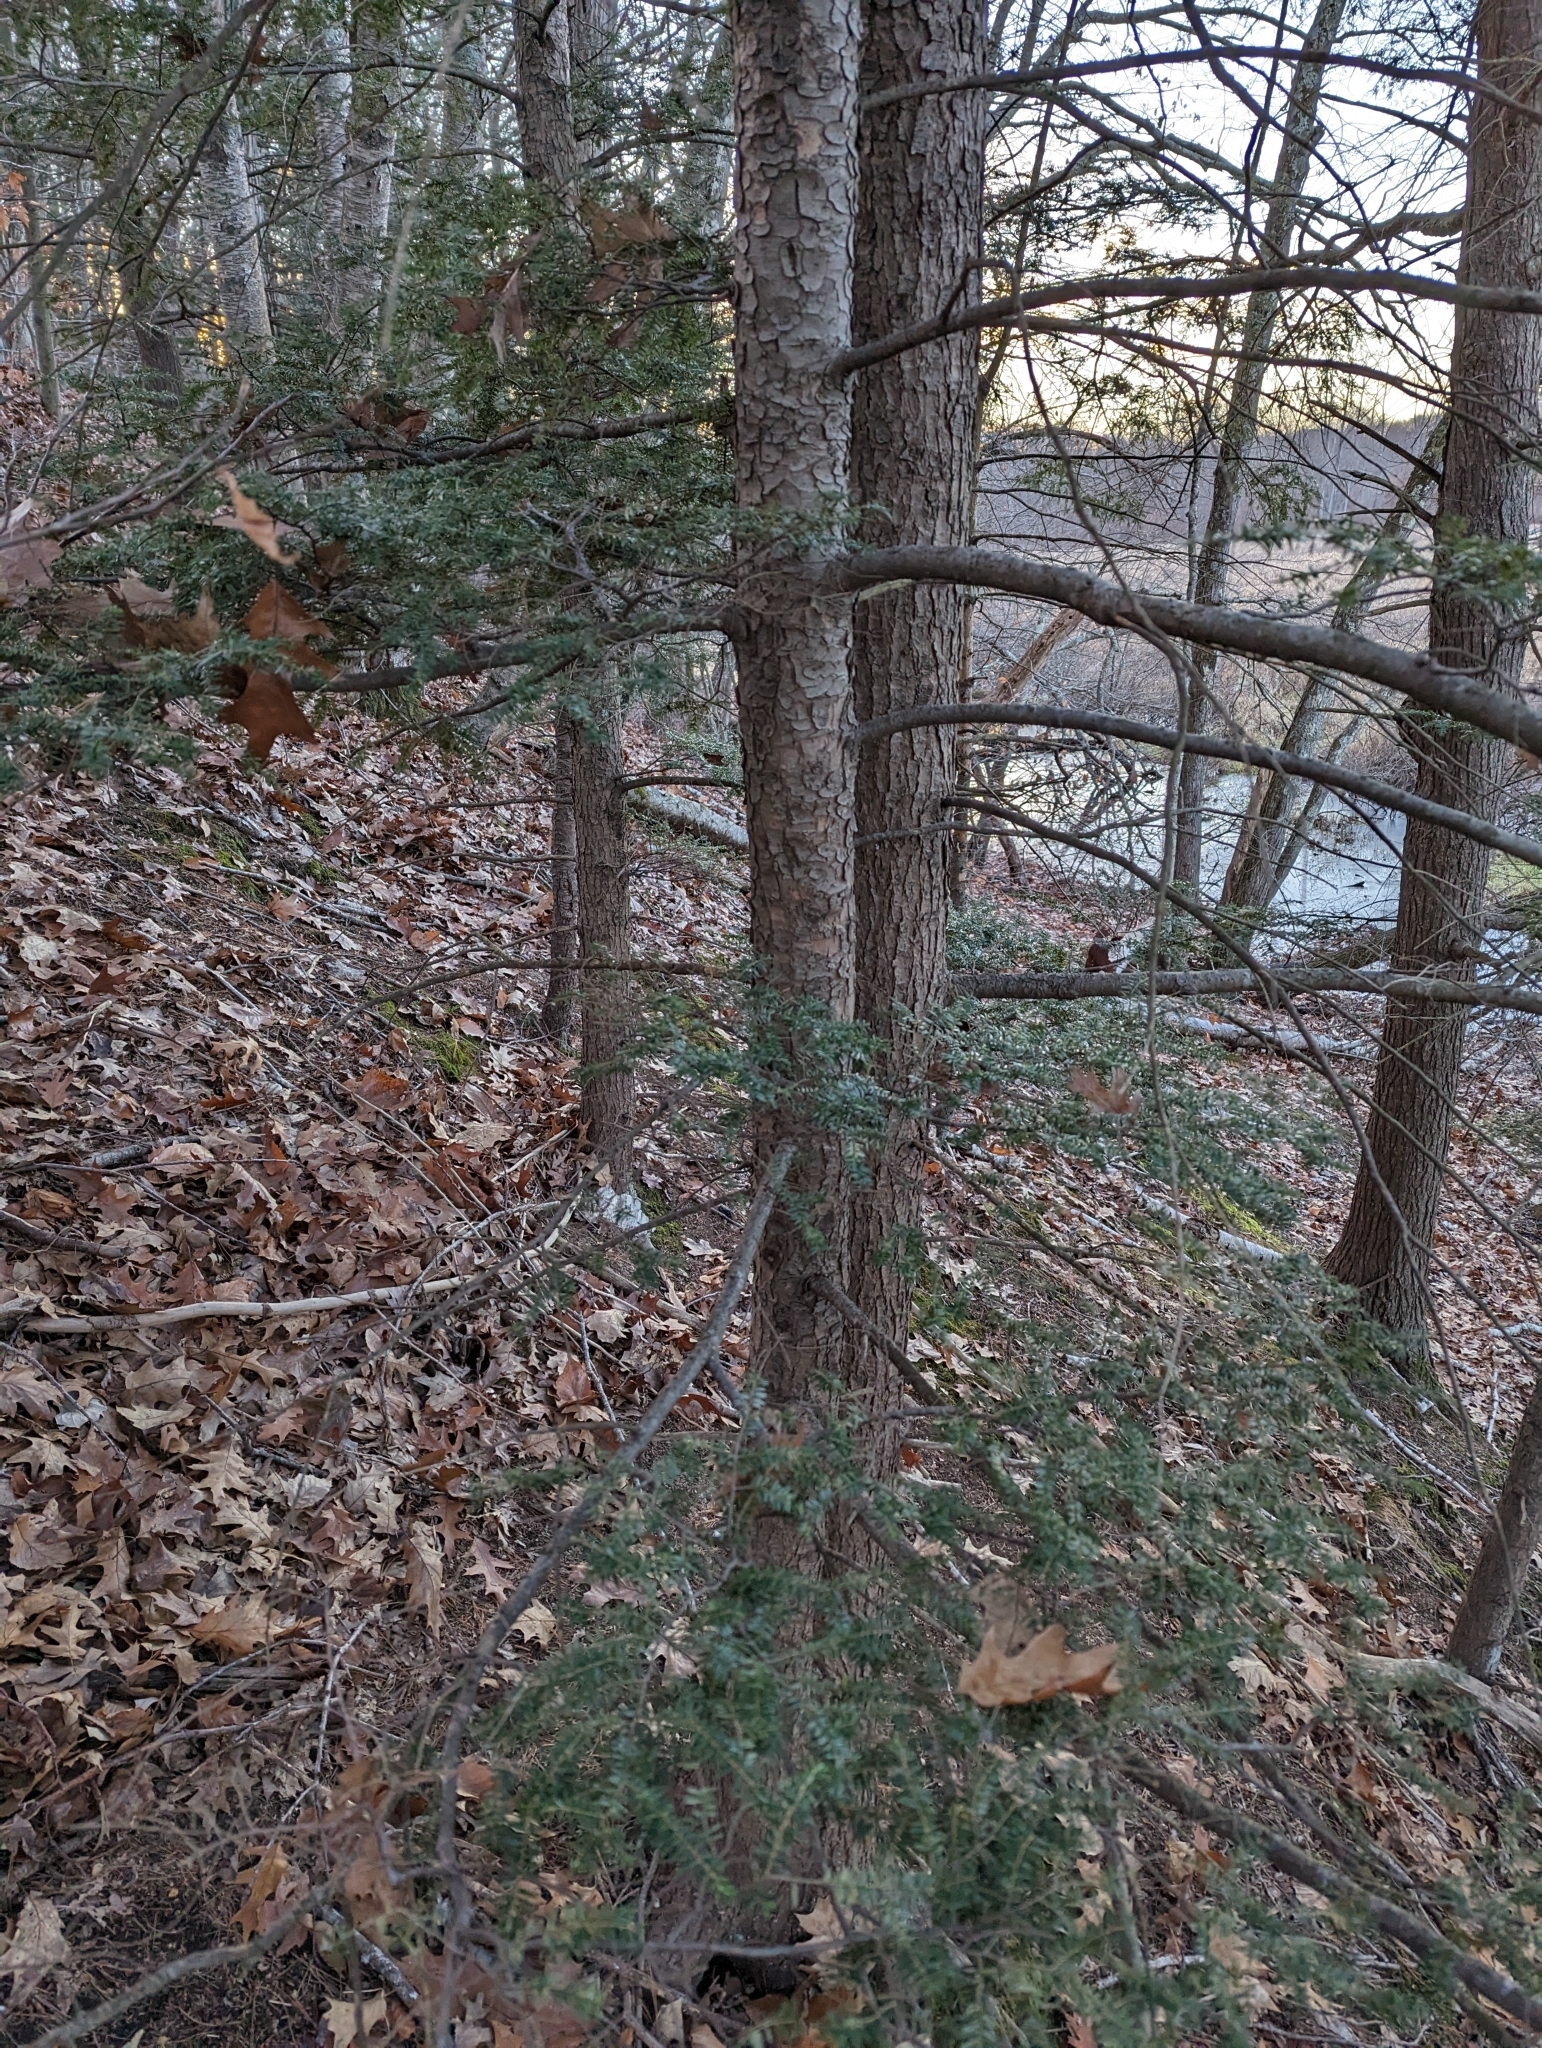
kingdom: Plantae
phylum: Tracheophyta
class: Pinopsida
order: Pinales
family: Pinaceae
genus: Tsuga
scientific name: Tsuga canadensis
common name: Eastern hemlock
